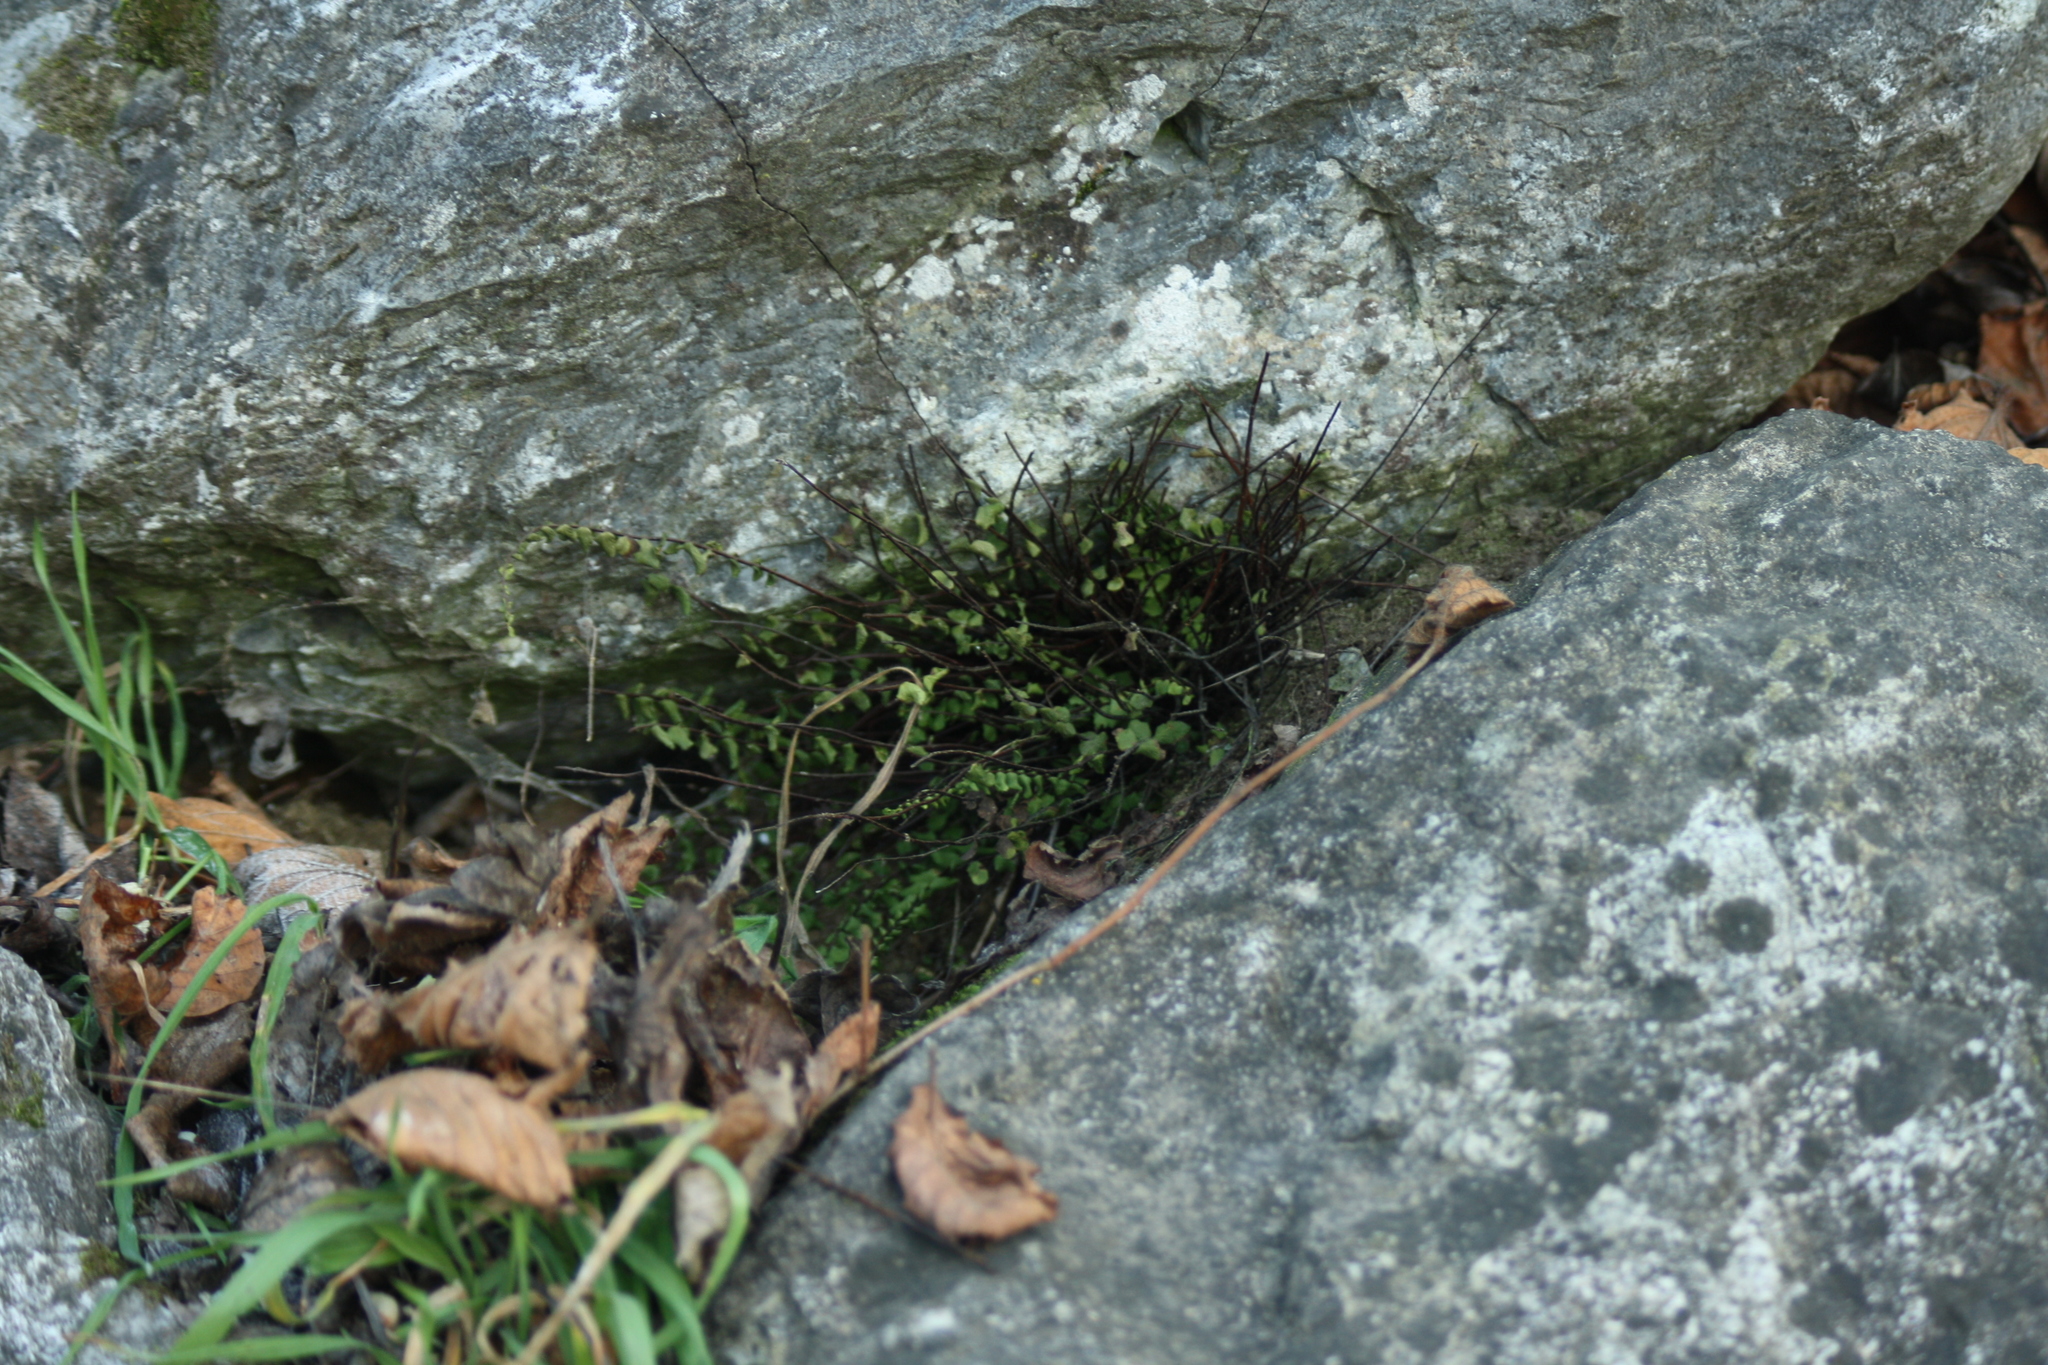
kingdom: Plantae
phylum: Tracheophyta
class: Polypodiopsida
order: Polypodiales
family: Aspleniaceae
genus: Asplenium
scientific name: Asplenium trichomanes
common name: Maidenhair spleenwort
